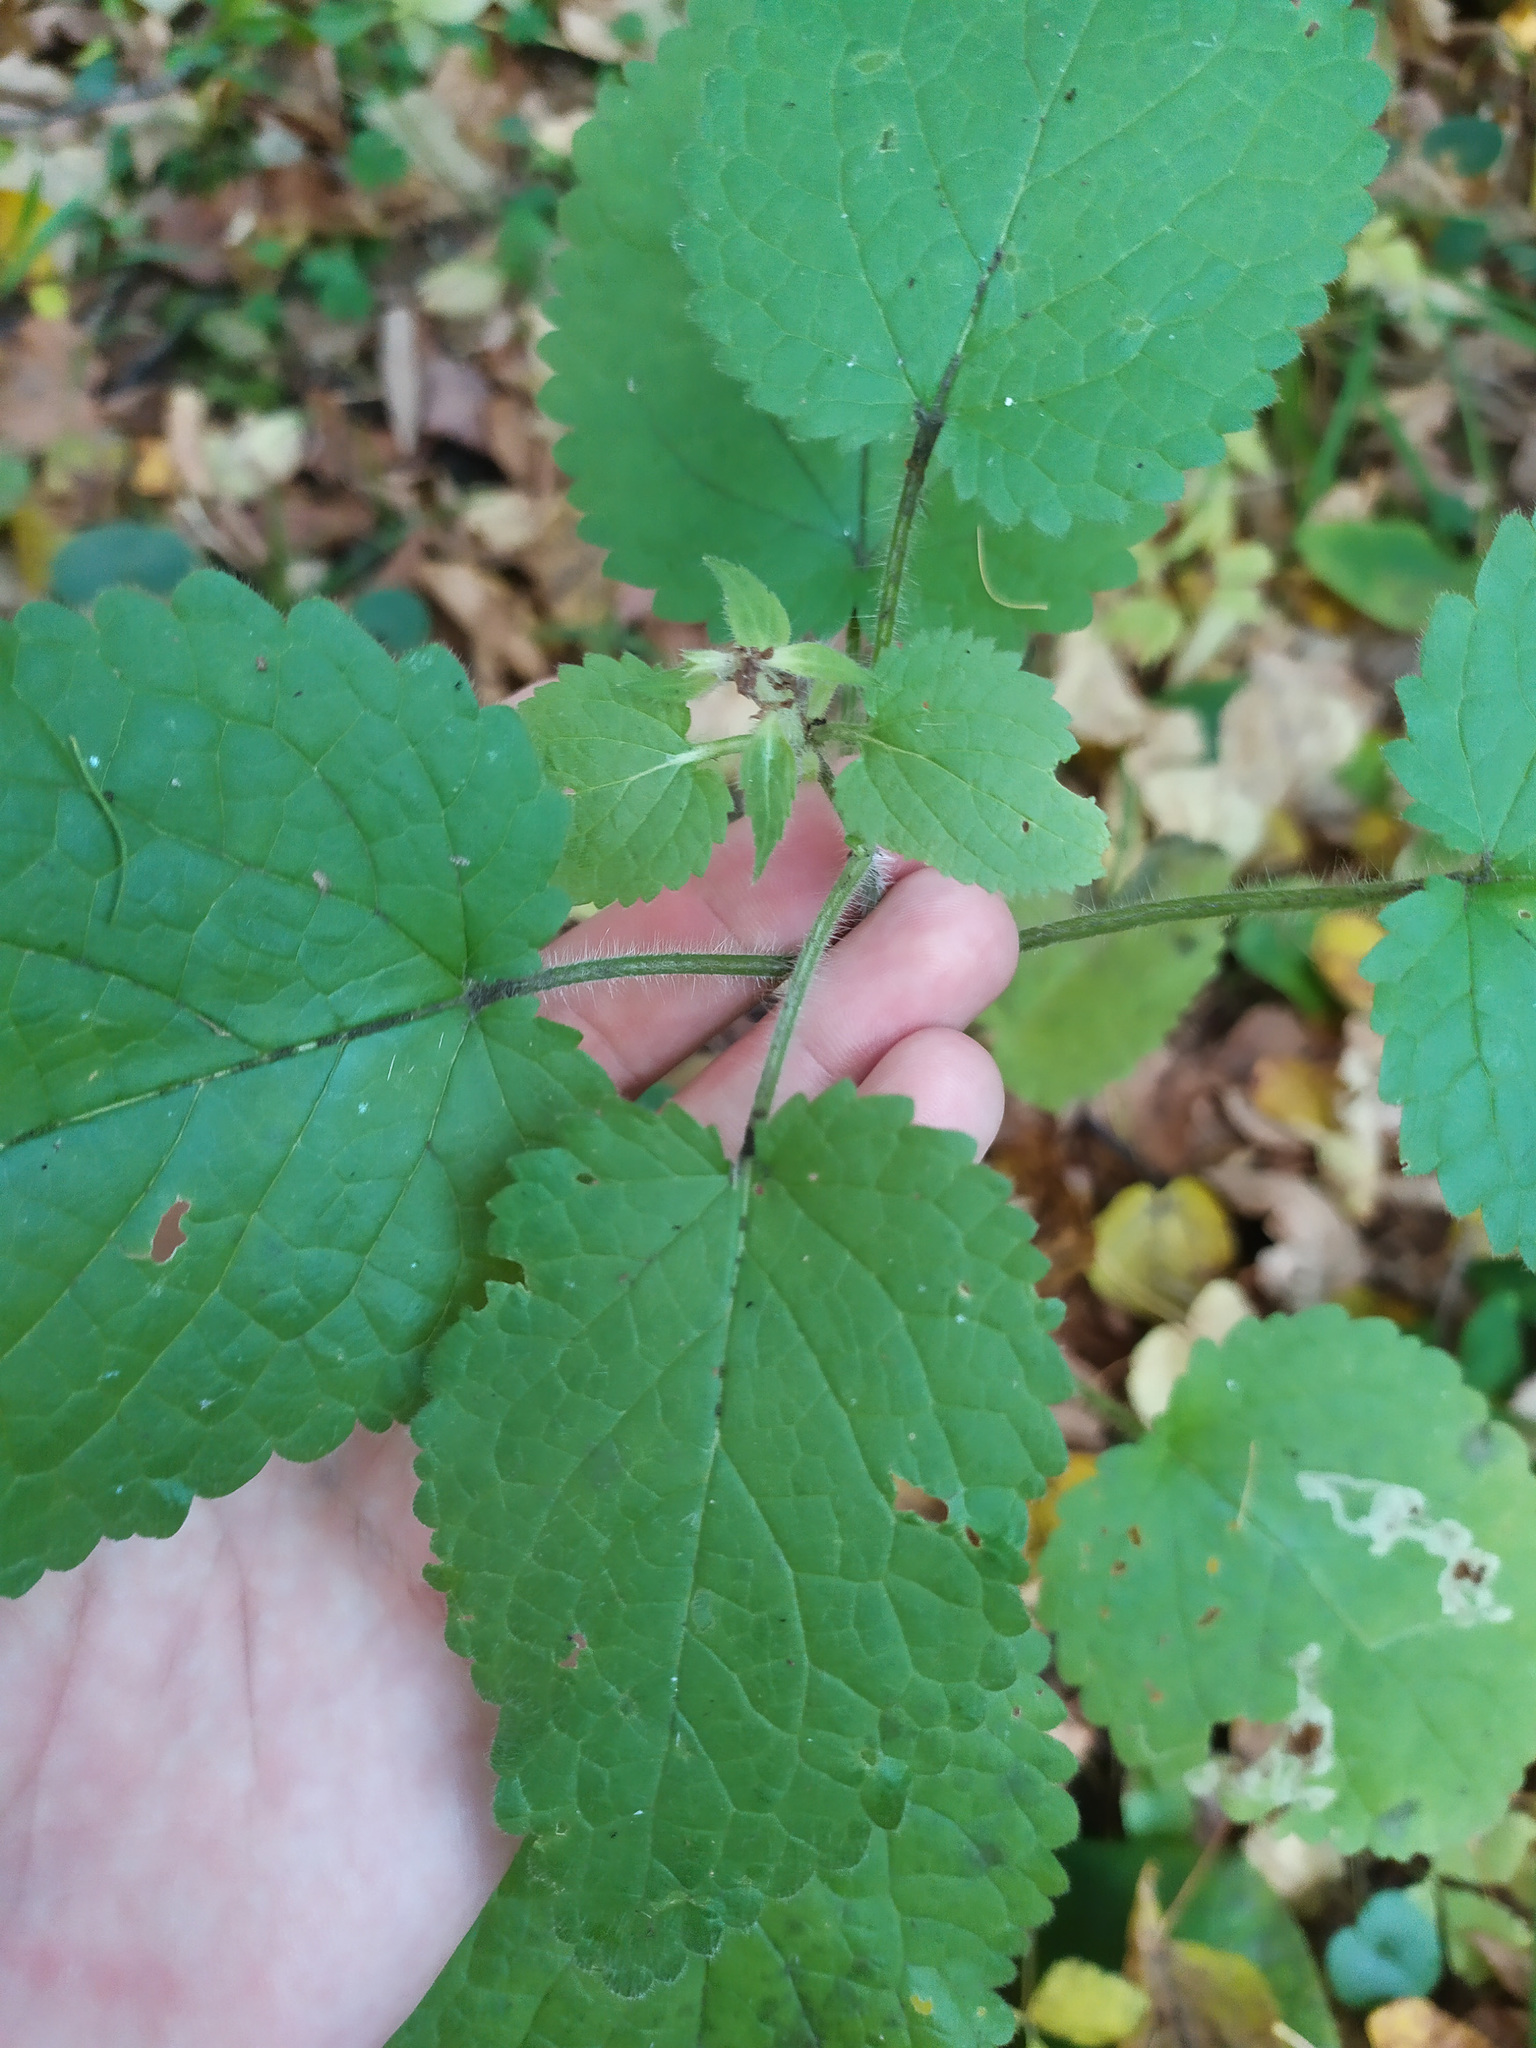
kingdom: Plantae
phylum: Tracheophyta
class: Magnoliopsida
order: Lamiales
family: Lamiaceae
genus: Stachys
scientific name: Stachys sylvatica
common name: Hedge woundwort
